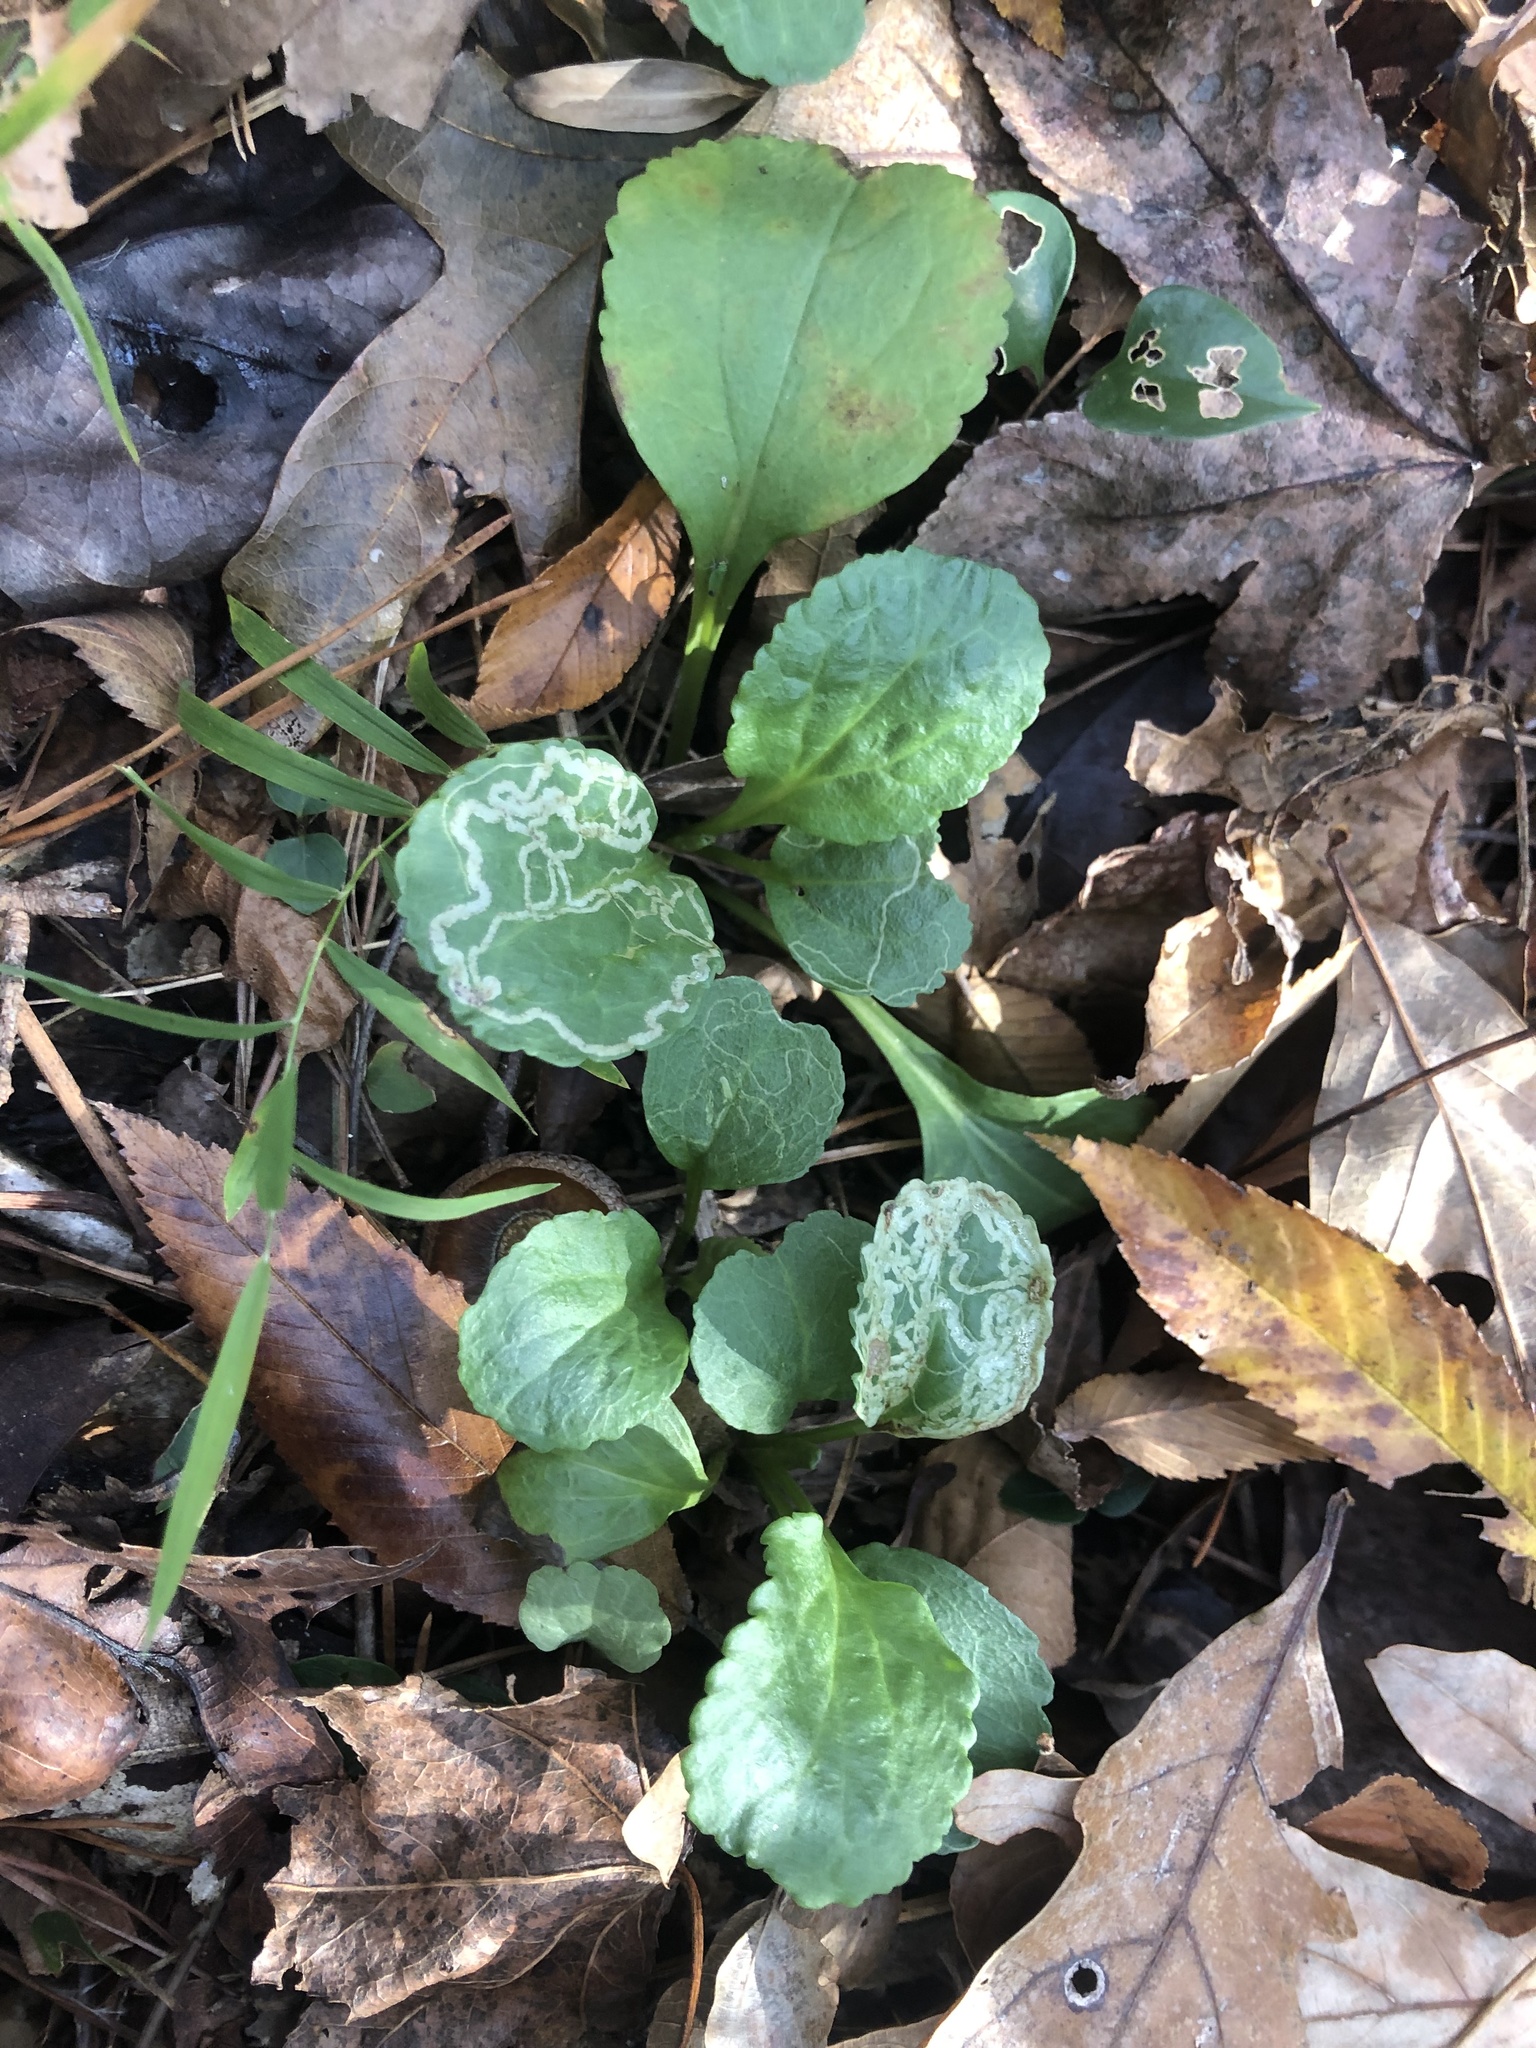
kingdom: Plantae
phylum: Tracheophyta
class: Magnoliopsida
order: Asterales
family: Asteraceae
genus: Packera
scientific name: Packera obovata
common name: Round-leaf ragwort
